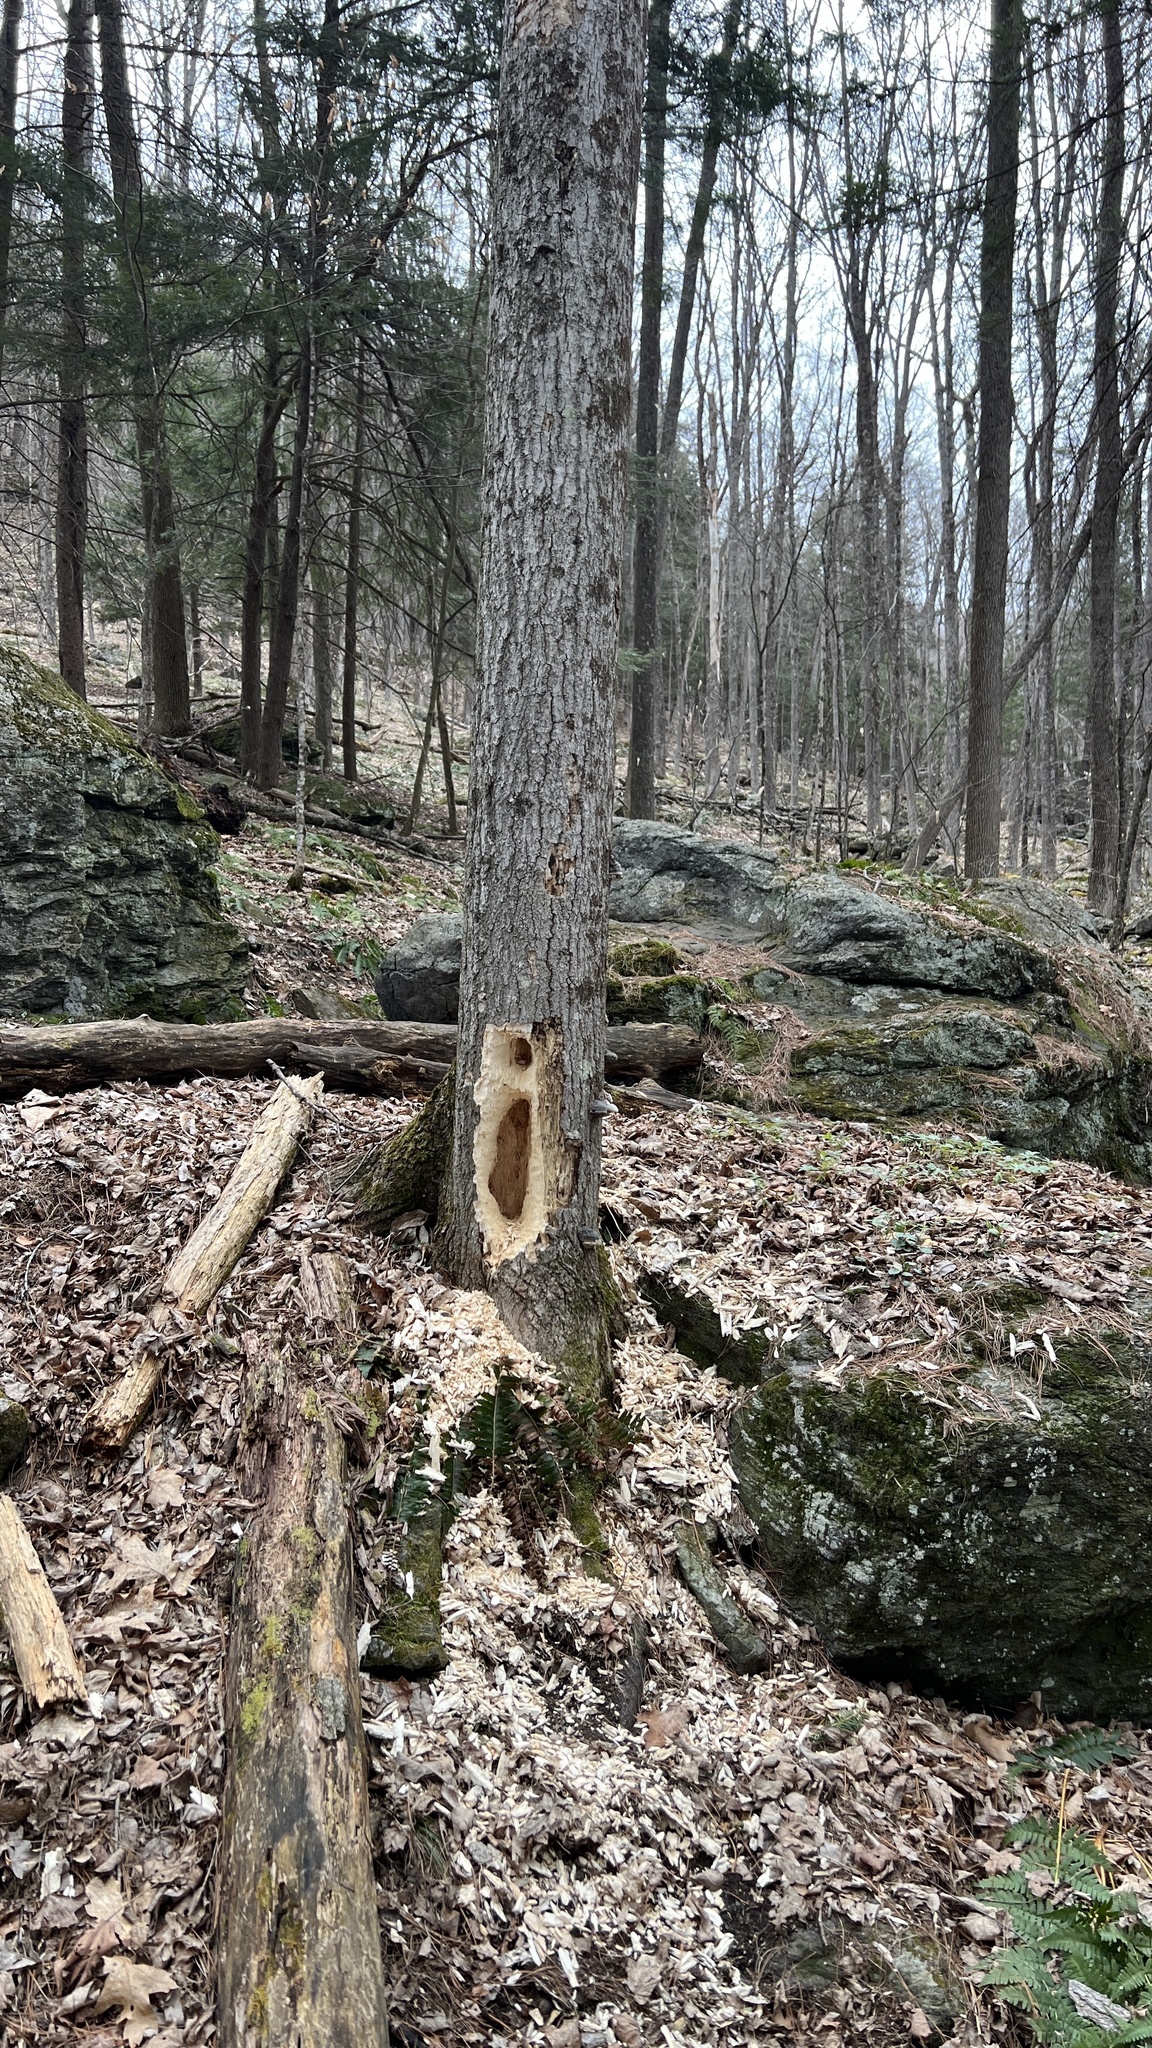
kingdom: Animalia
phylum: Chordata
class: Aves
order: Piciformes
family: Picidae
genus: Dryocopus
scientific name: Dryocopus pileatus
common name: Pileated woodpecker
